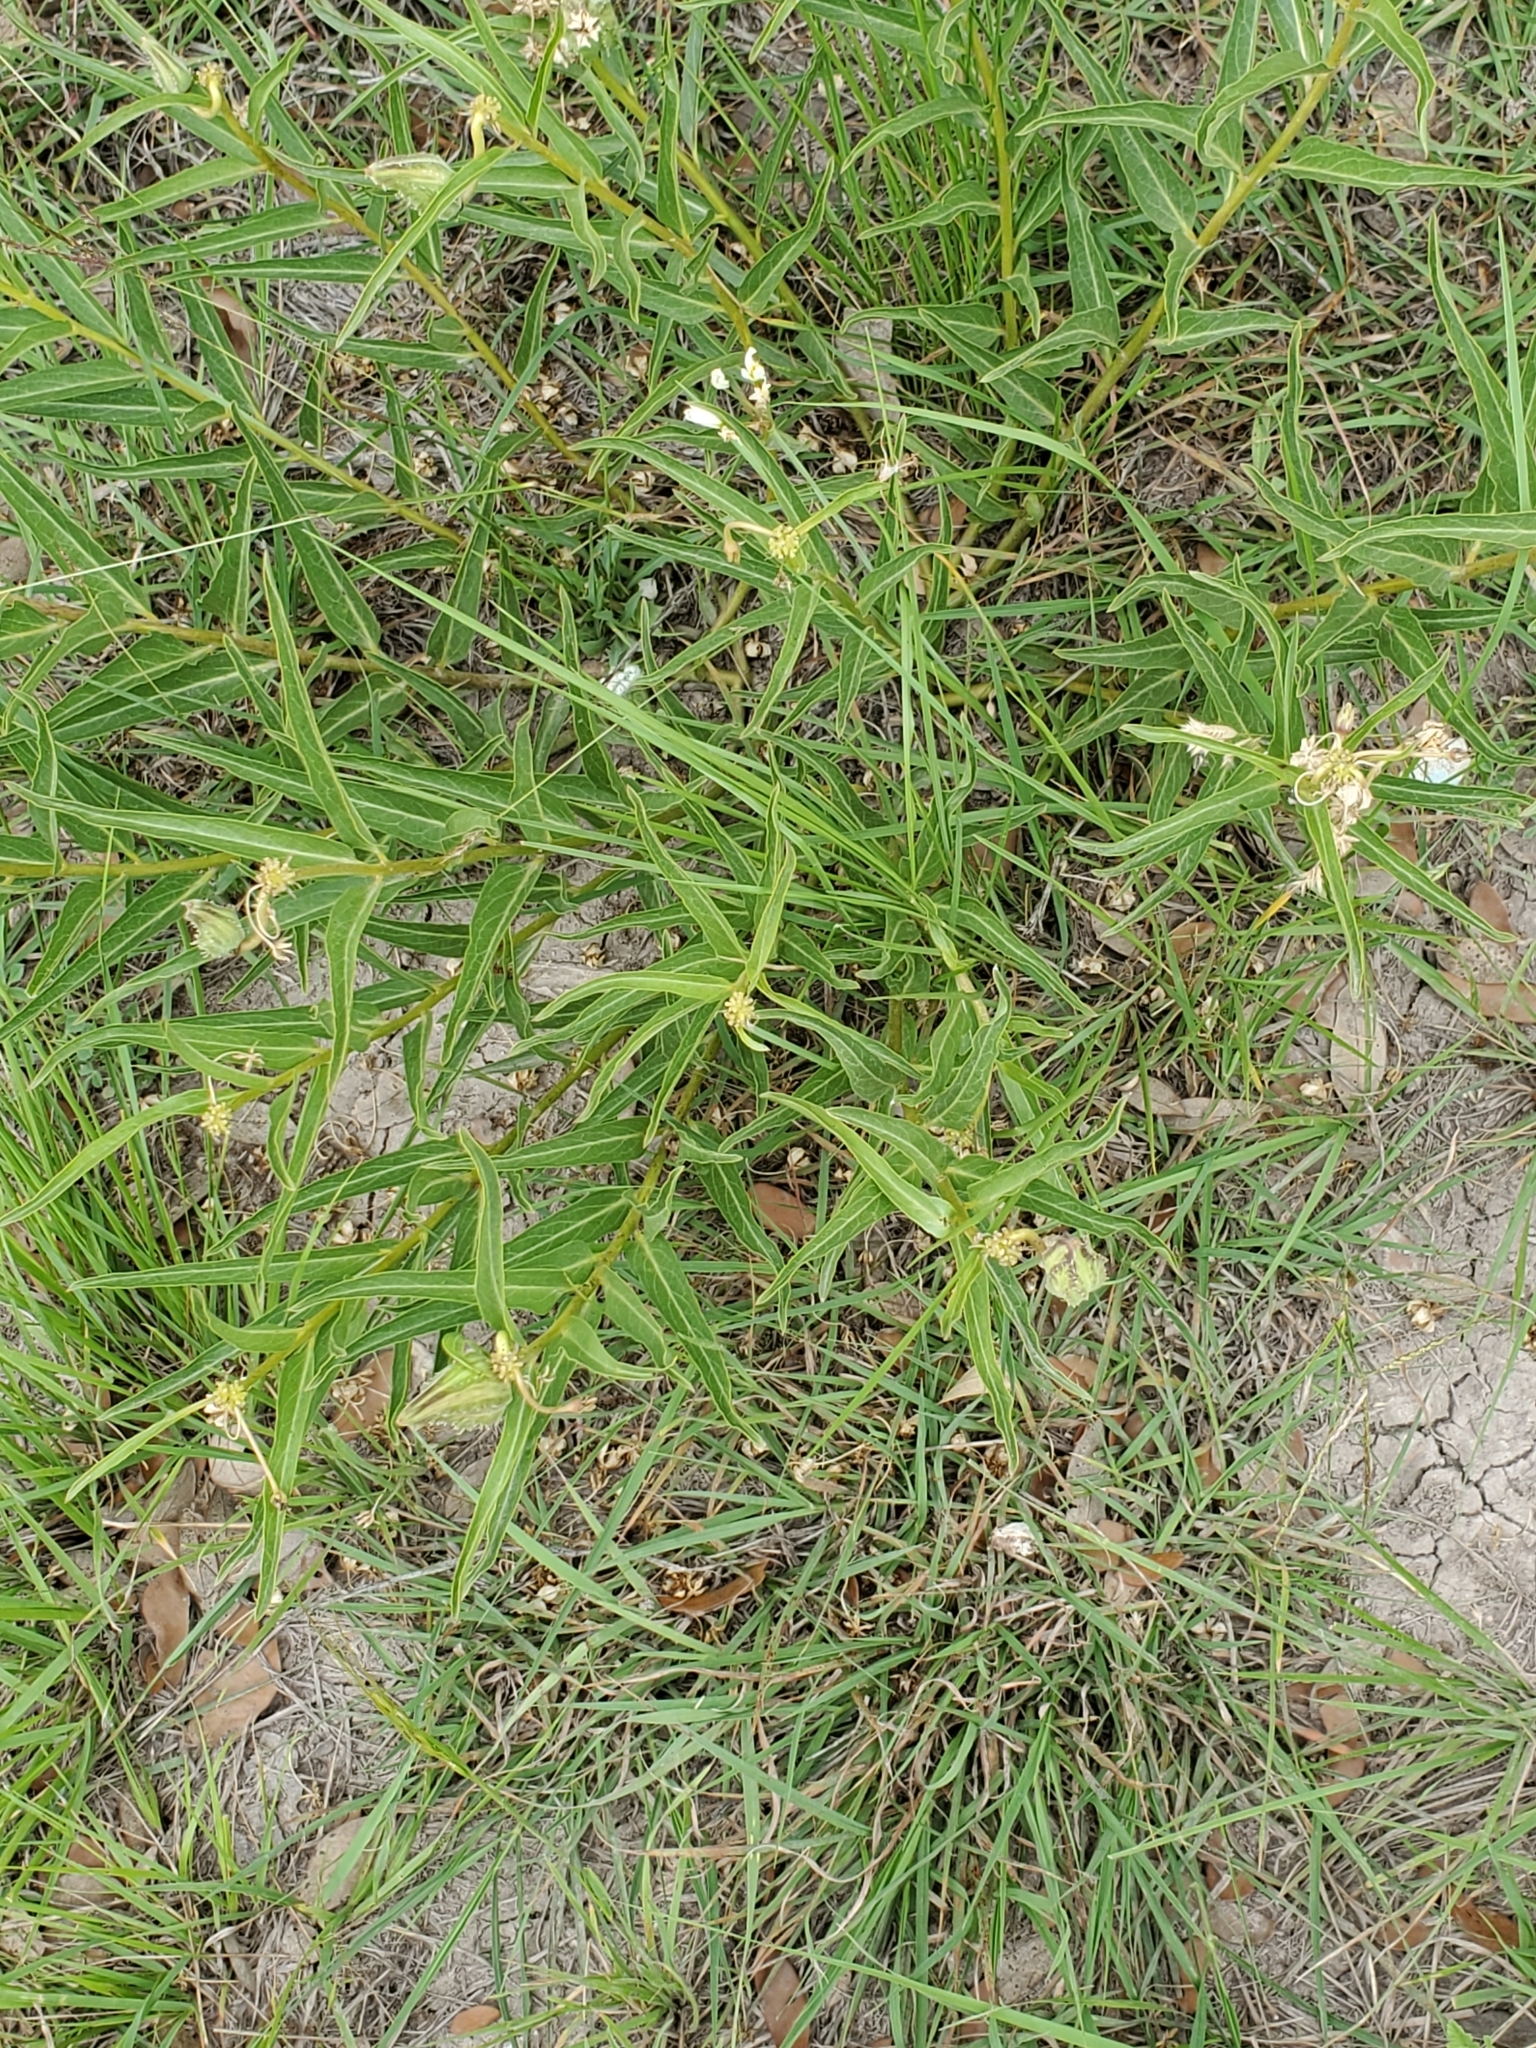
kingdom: Plantae
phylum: Tracheophyta
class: Magnoliopsida
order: Gentianales
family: Apocynaceae
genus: Asclepias
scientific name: Asclepias asperula
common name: Antelope horns
